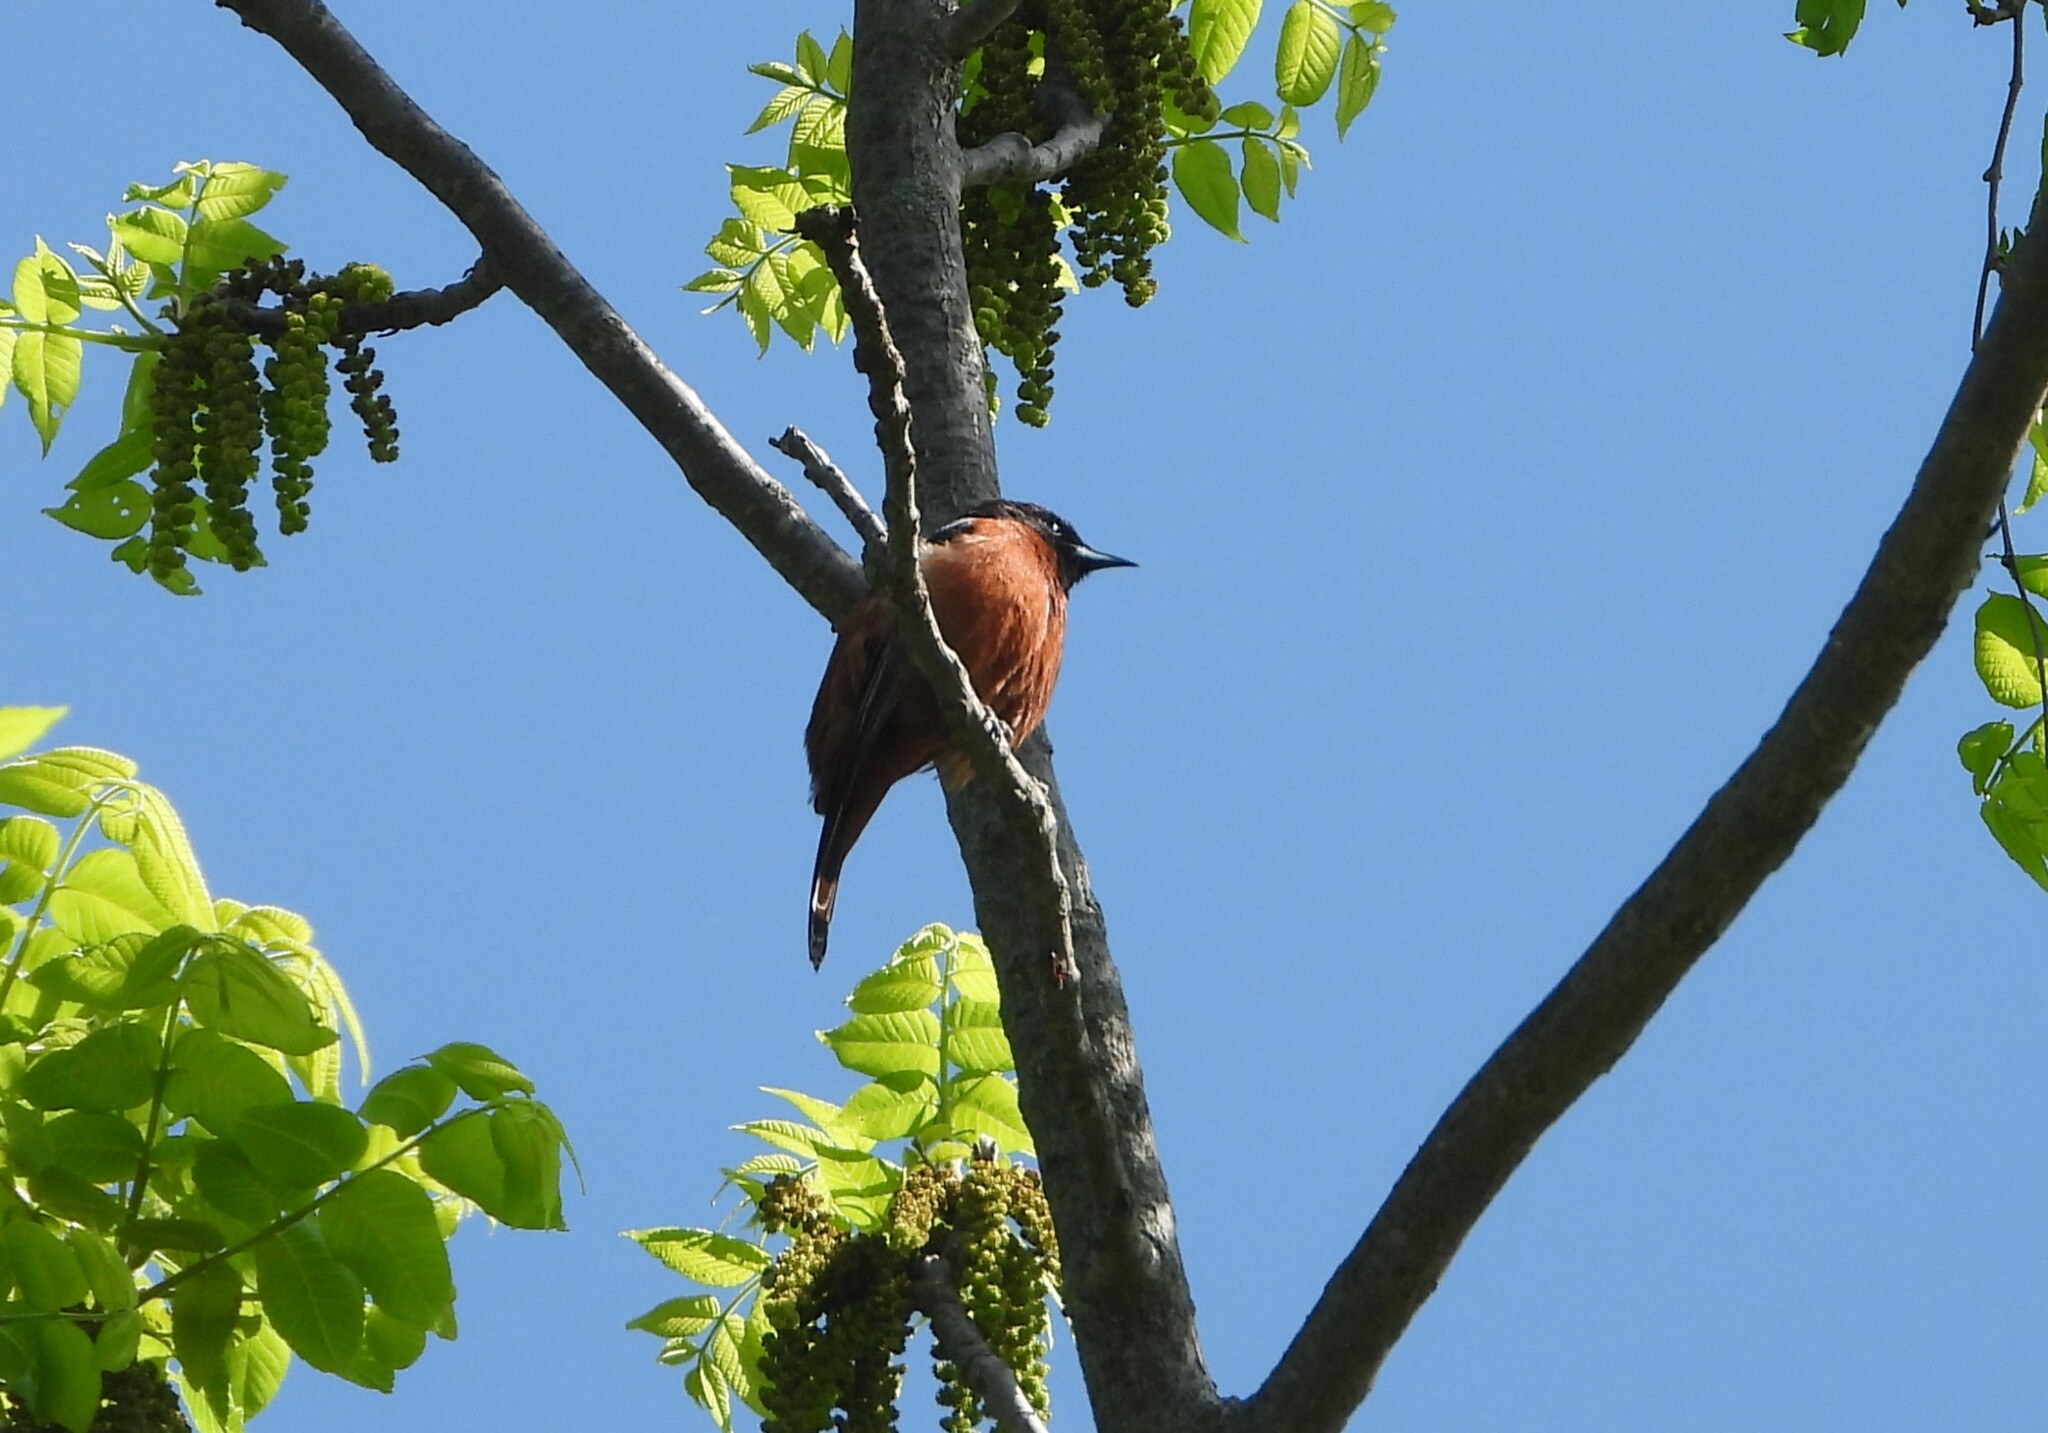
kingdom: Animalia
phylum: Chordata
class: Aves
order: Passeriformes
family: Icteridae
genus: Icterus
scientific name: Icterus spurius
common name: Orchard oriole
